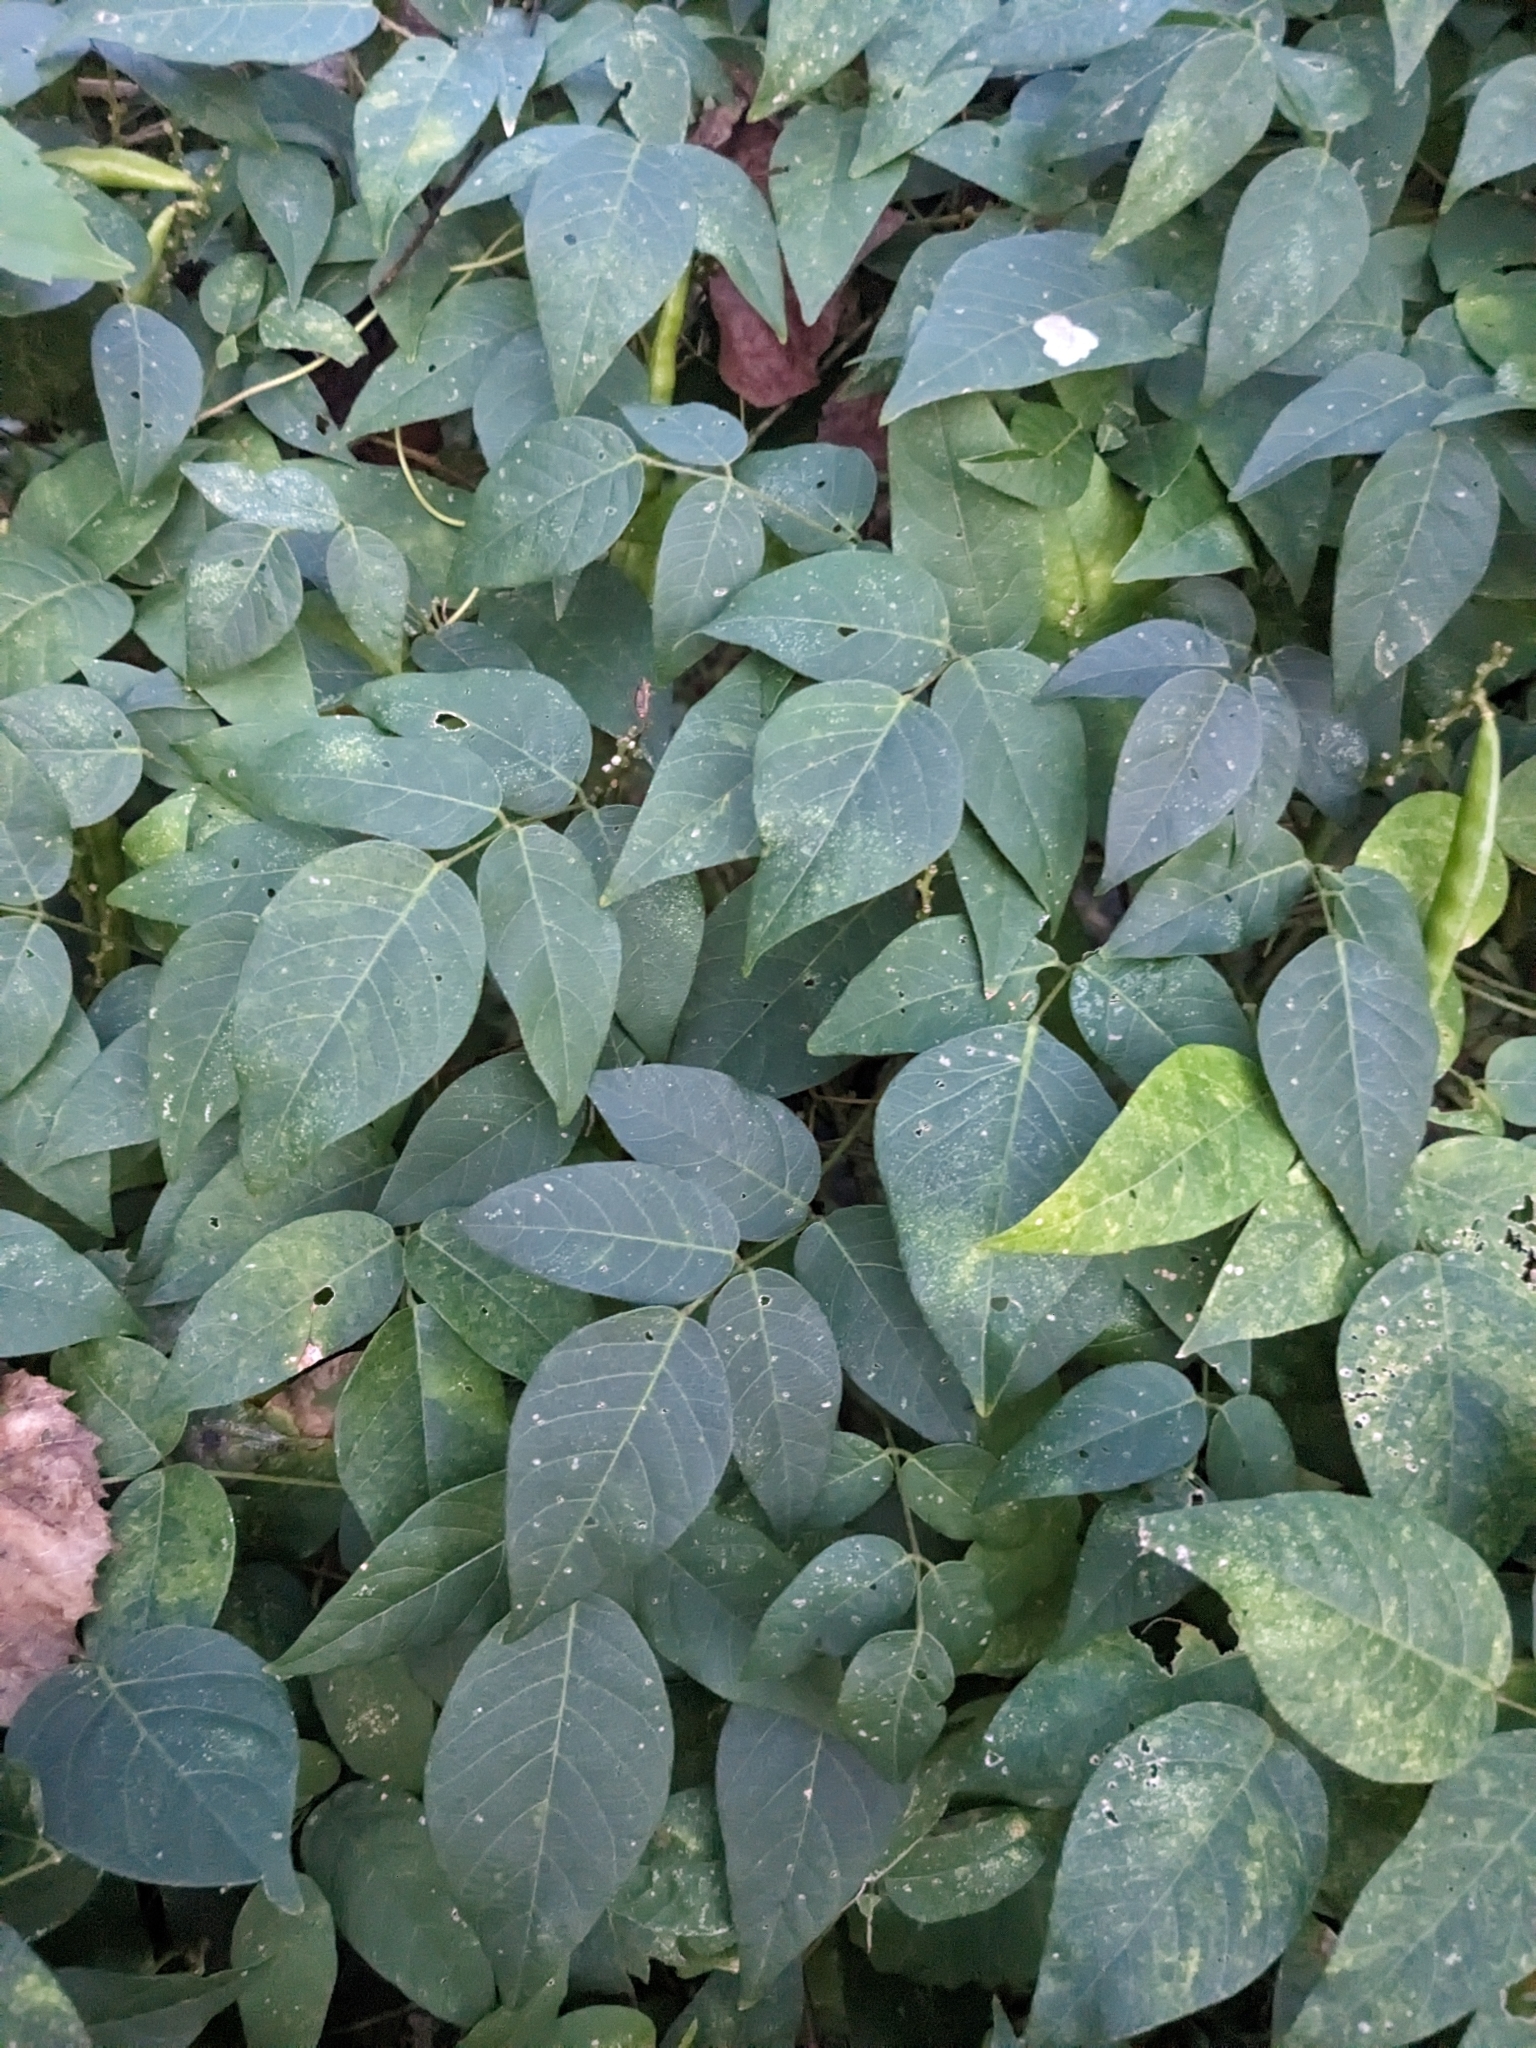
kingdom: Plantae
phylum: Tracheophyta
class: Magnoliopsida
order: Fabales
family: Fabaceae
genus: Apios
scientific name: Apios americana
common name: American potato-bean
